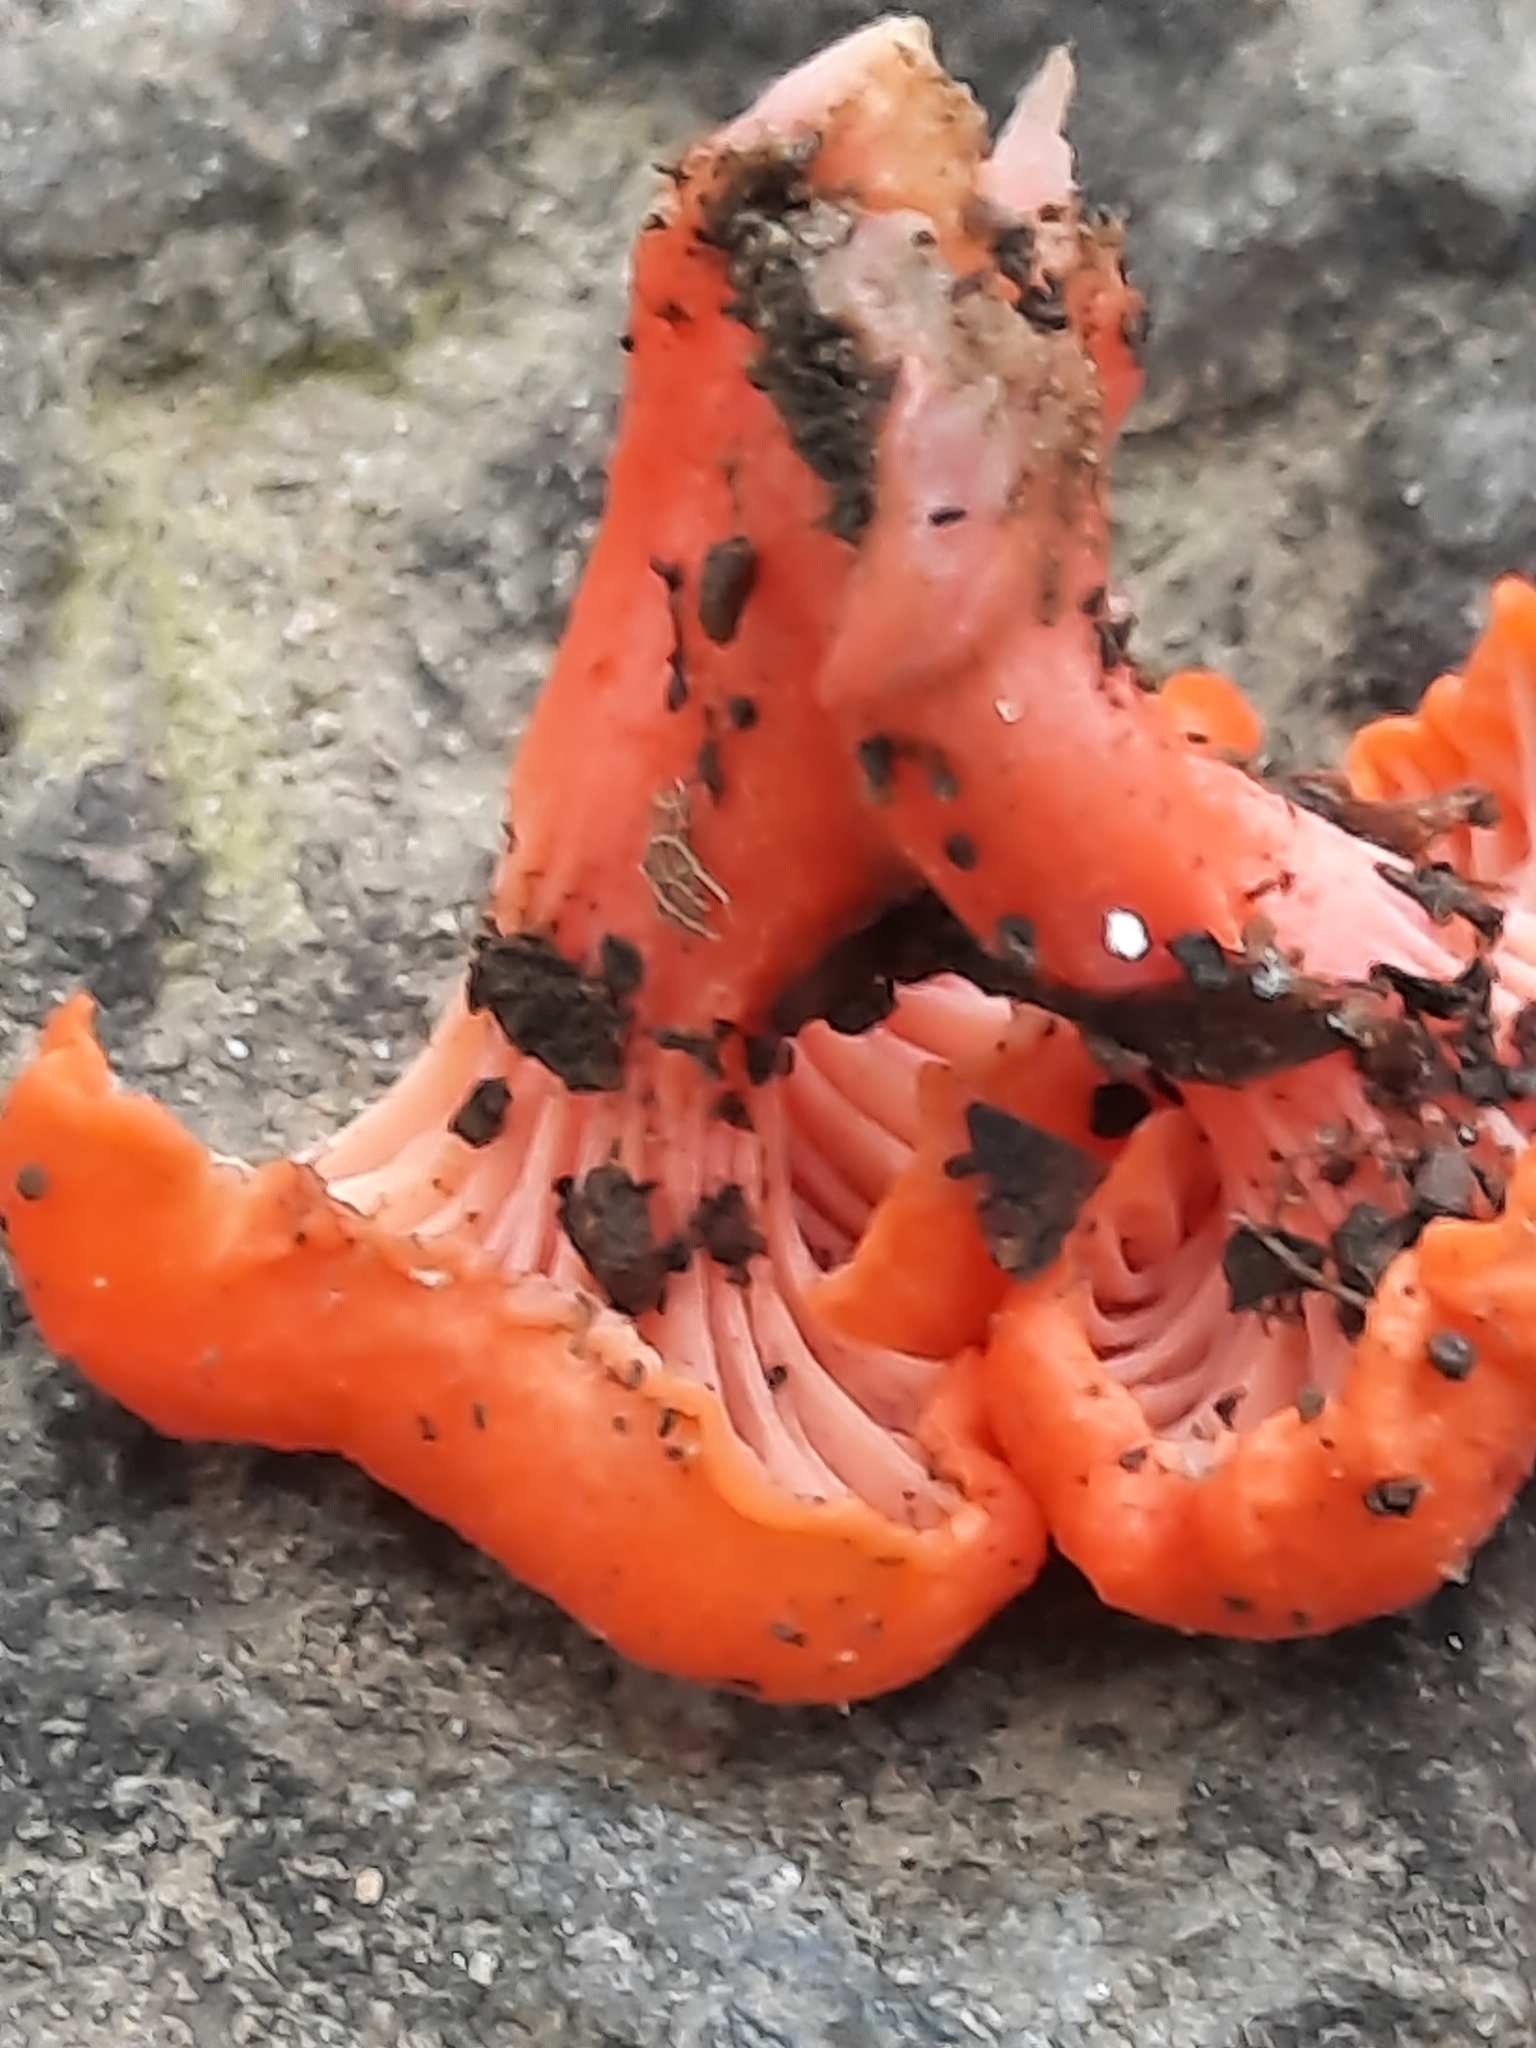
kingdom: Fungi
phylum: Basidiomycota
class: Agaricomycetes
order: Cantharellales
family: Hydnaceae
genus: Cantharellus
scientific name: Cantharellus cinnabarinus
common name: Cinnabar chanterelle
